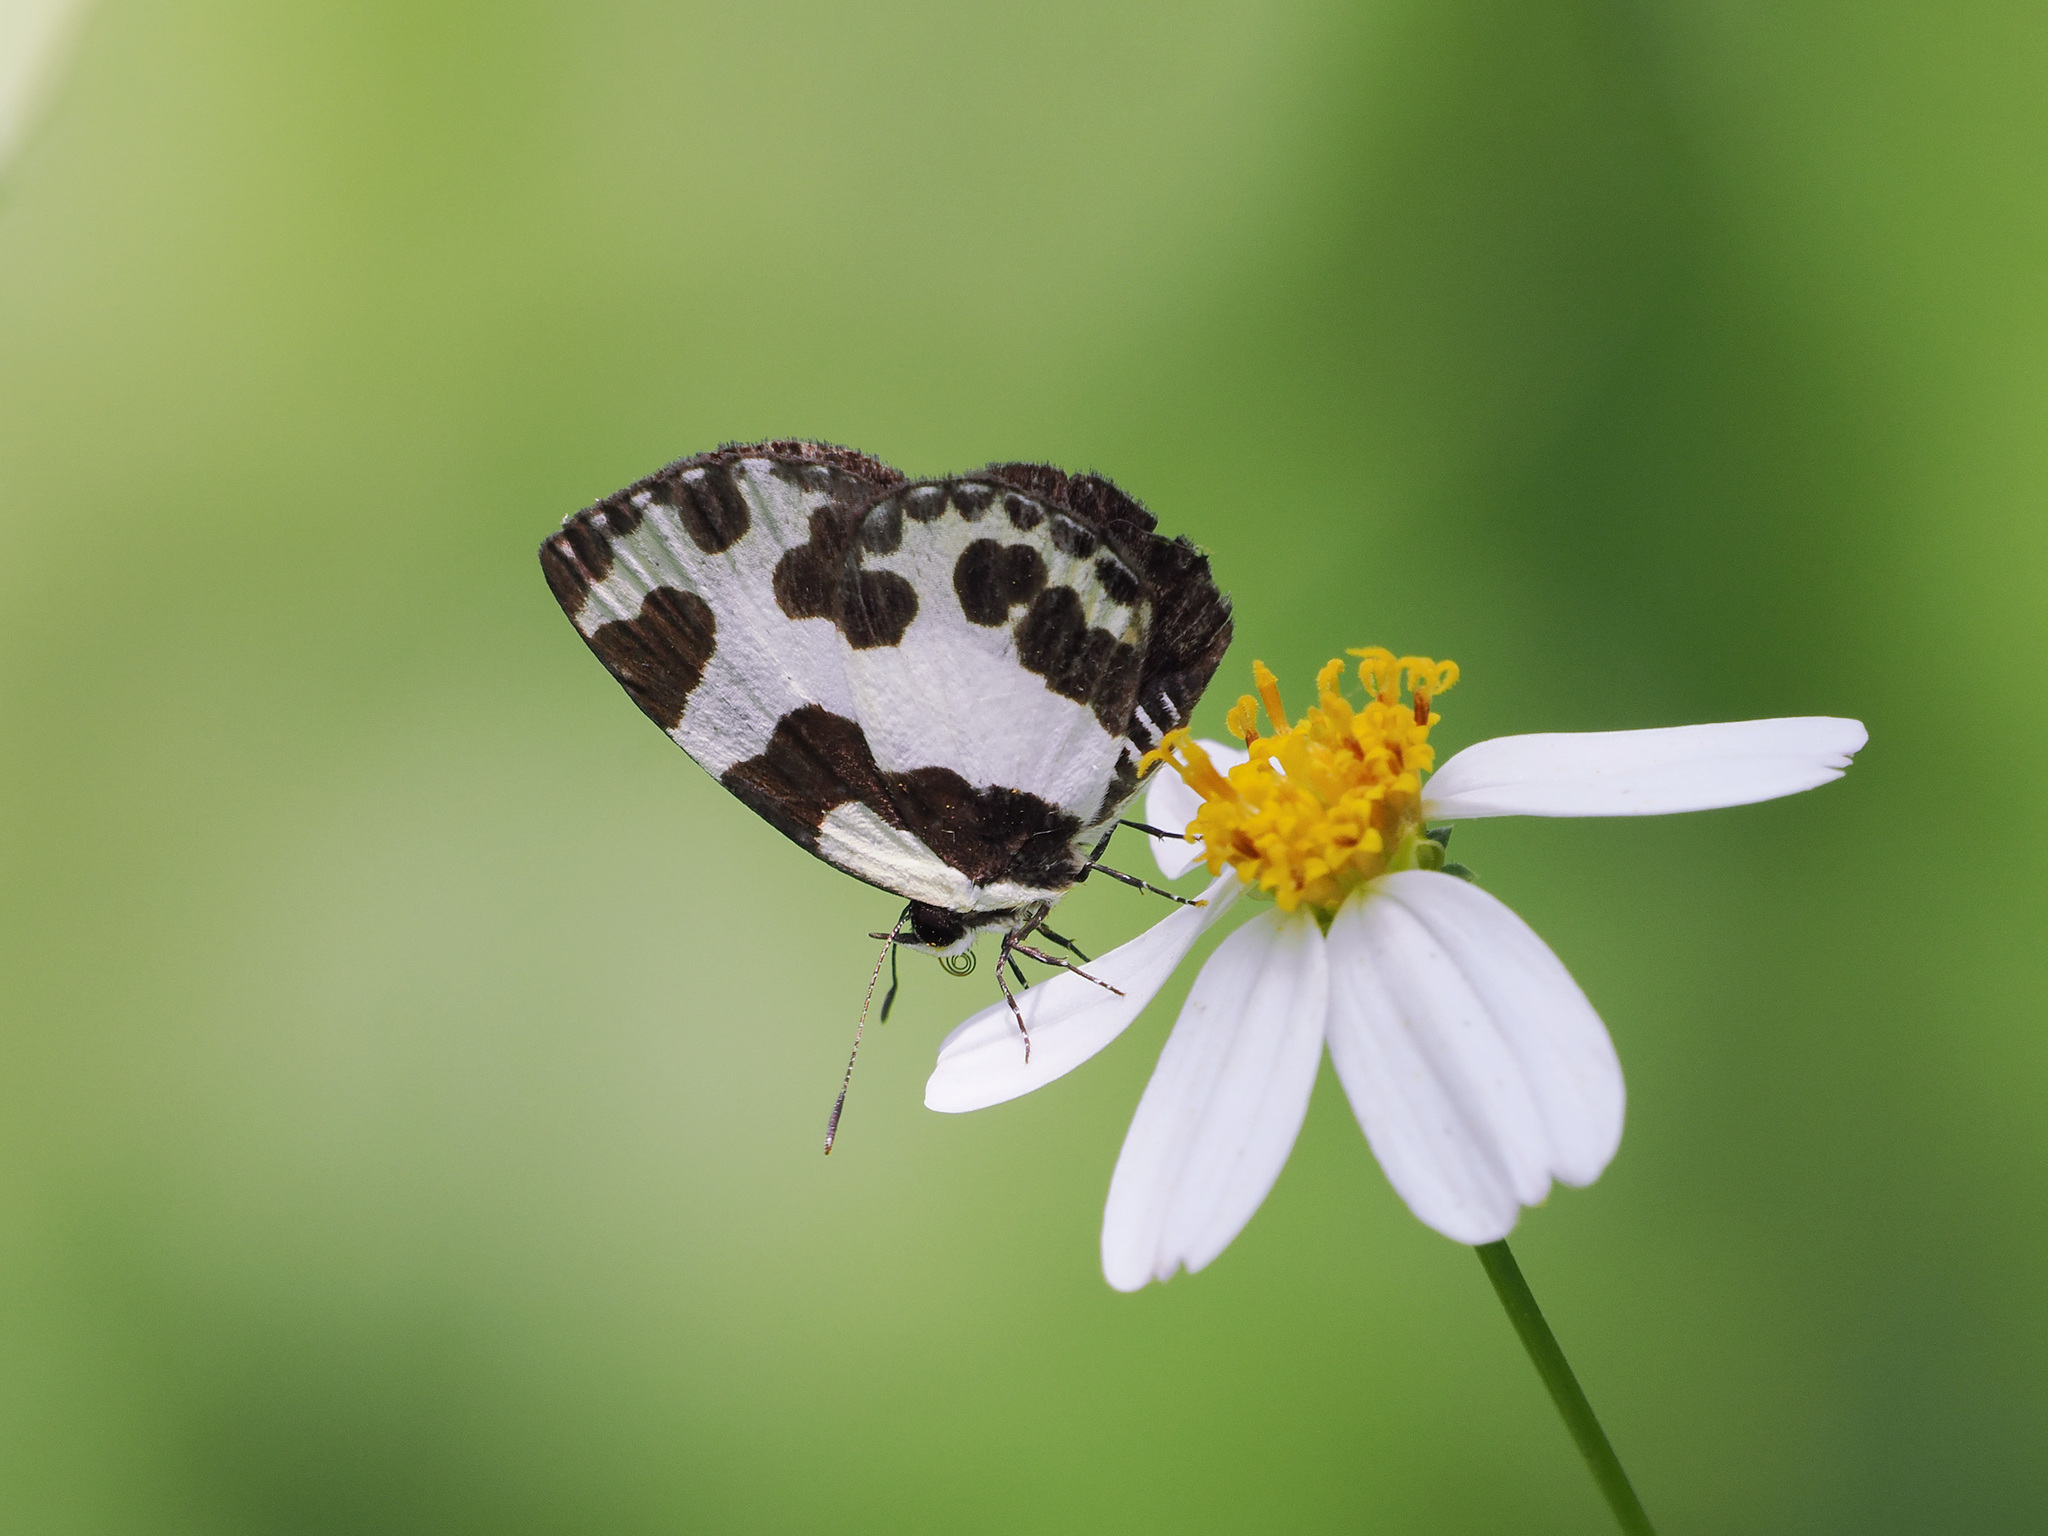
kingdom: Animalia
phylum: Arthropoda
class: Insecta
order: Lepidoptera
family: Lycaenidae
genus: Caleta
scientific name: Caleta elna
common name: Elbowed pierrot
